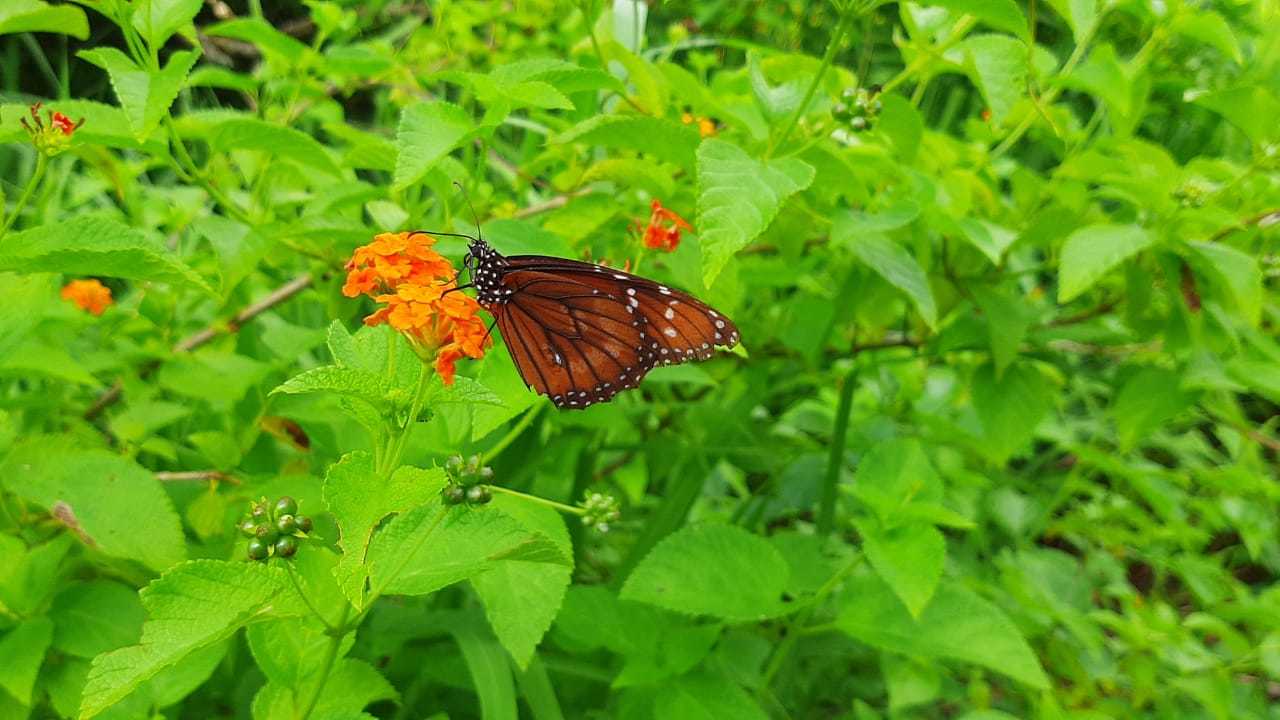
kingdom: Animalia
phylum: Arthropoda
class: Insecta
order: Lepidoptera
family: Nymphalidae
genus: Danaus
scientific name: Danaus eresimus
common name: Soldier
